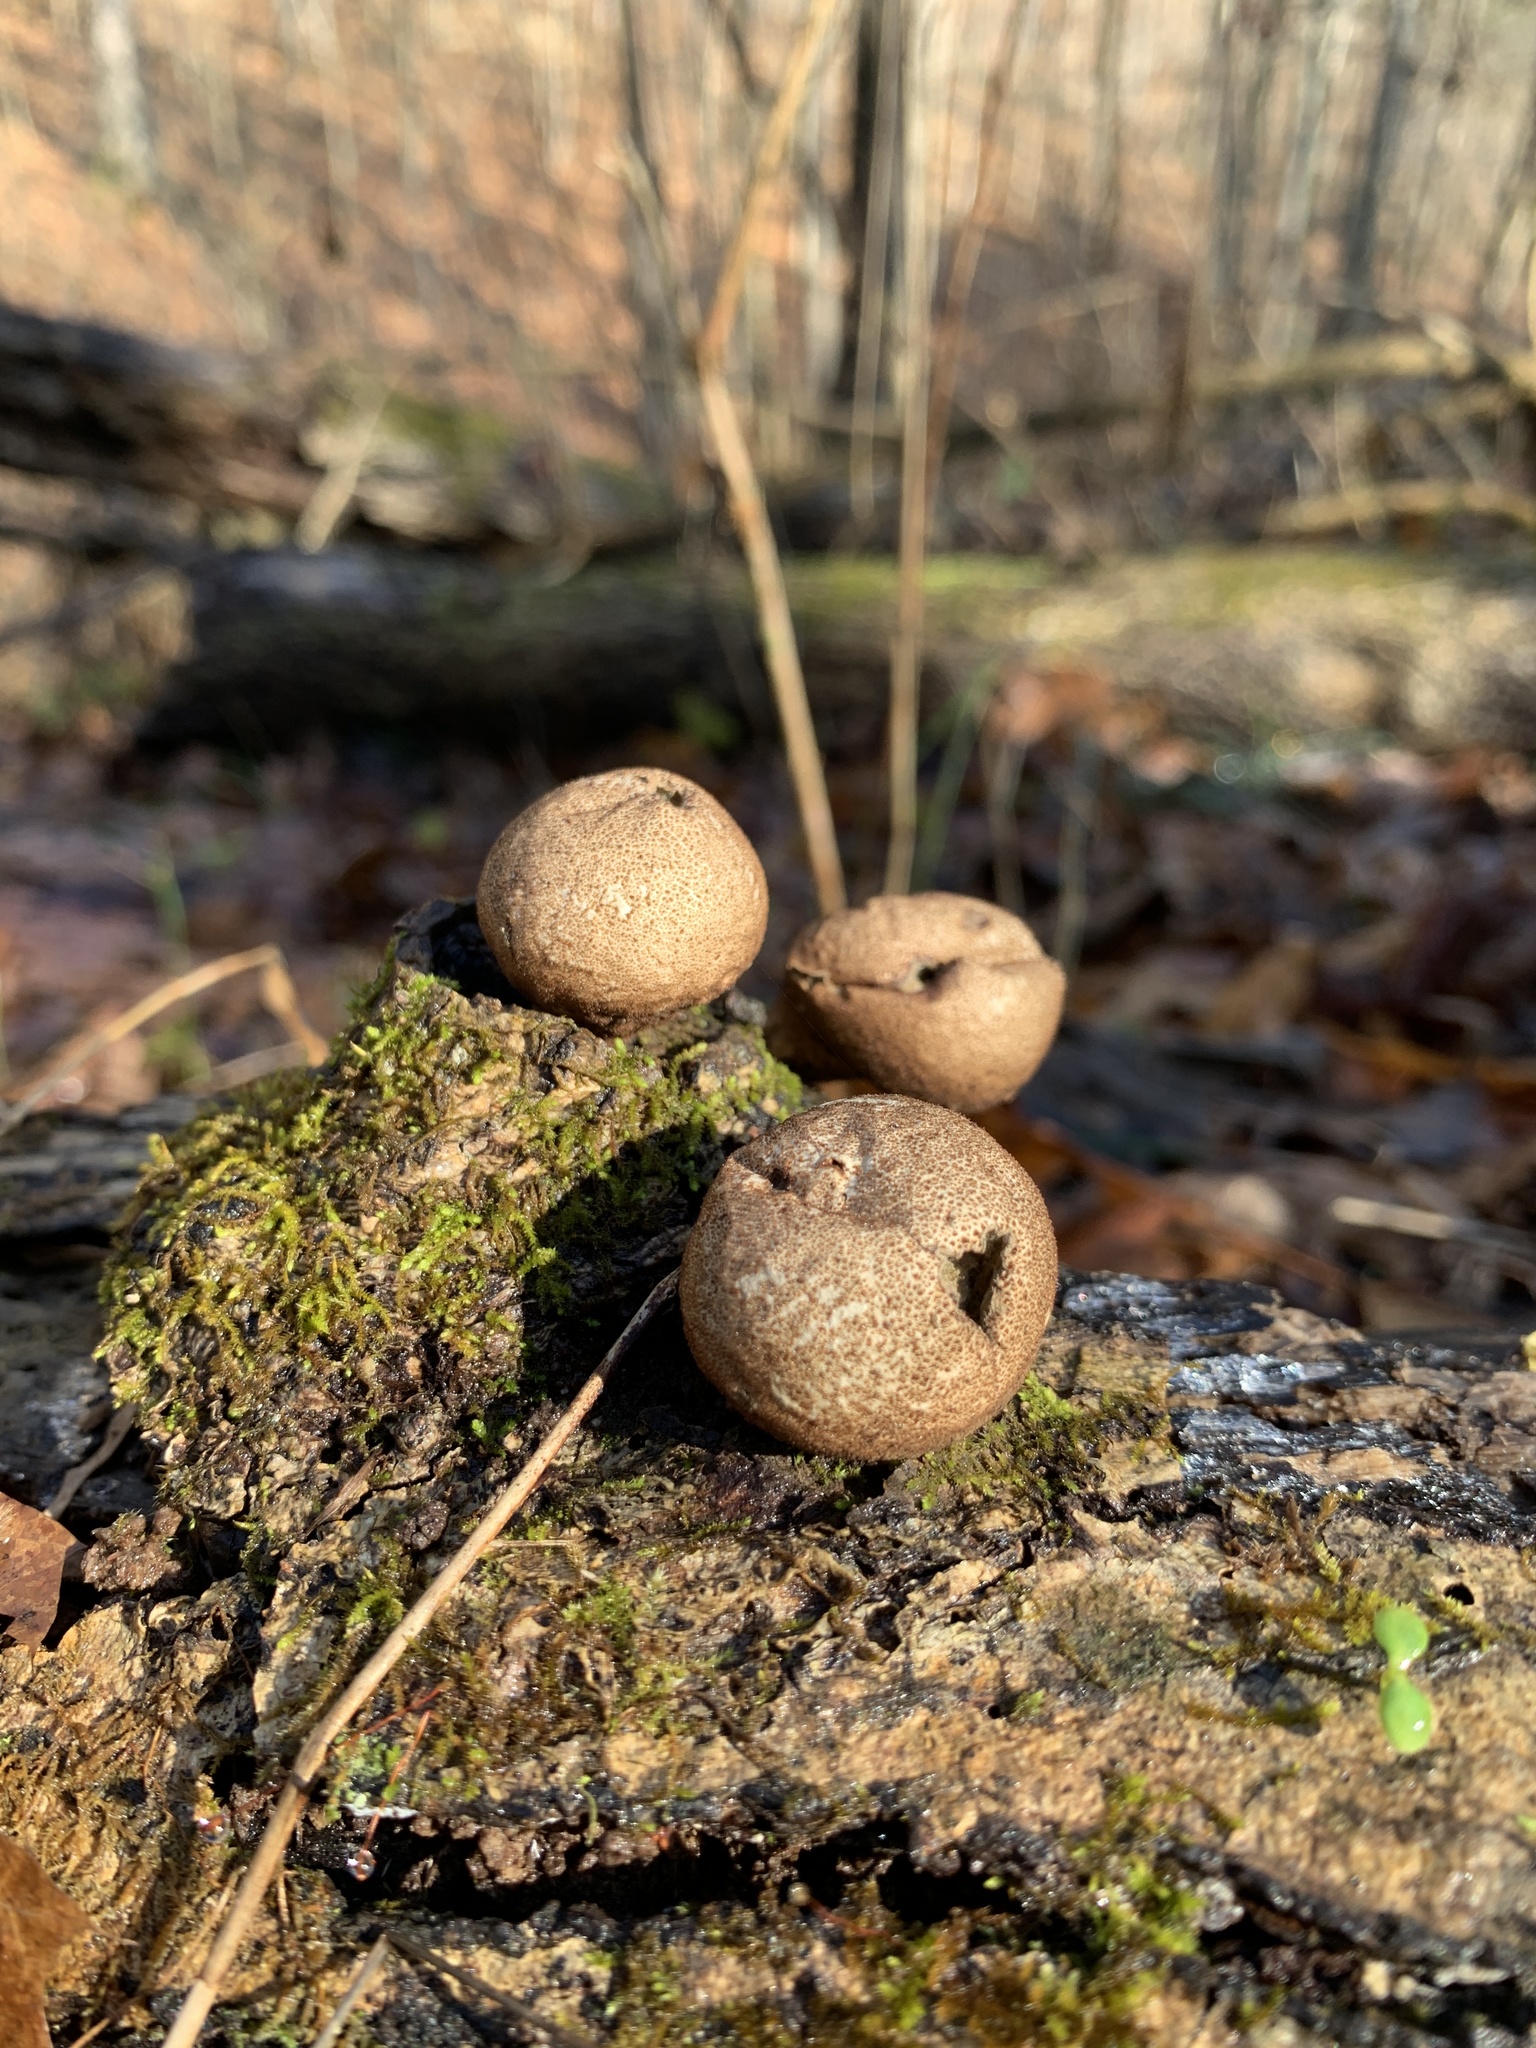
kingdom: Fungi
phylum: Basidiomycota
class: Agaricomycetes
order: Agaricales
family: Lycoperdaceae
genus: Apioperdon
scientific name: Apioperdon pyriforme
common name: Pear-shaped puffball
